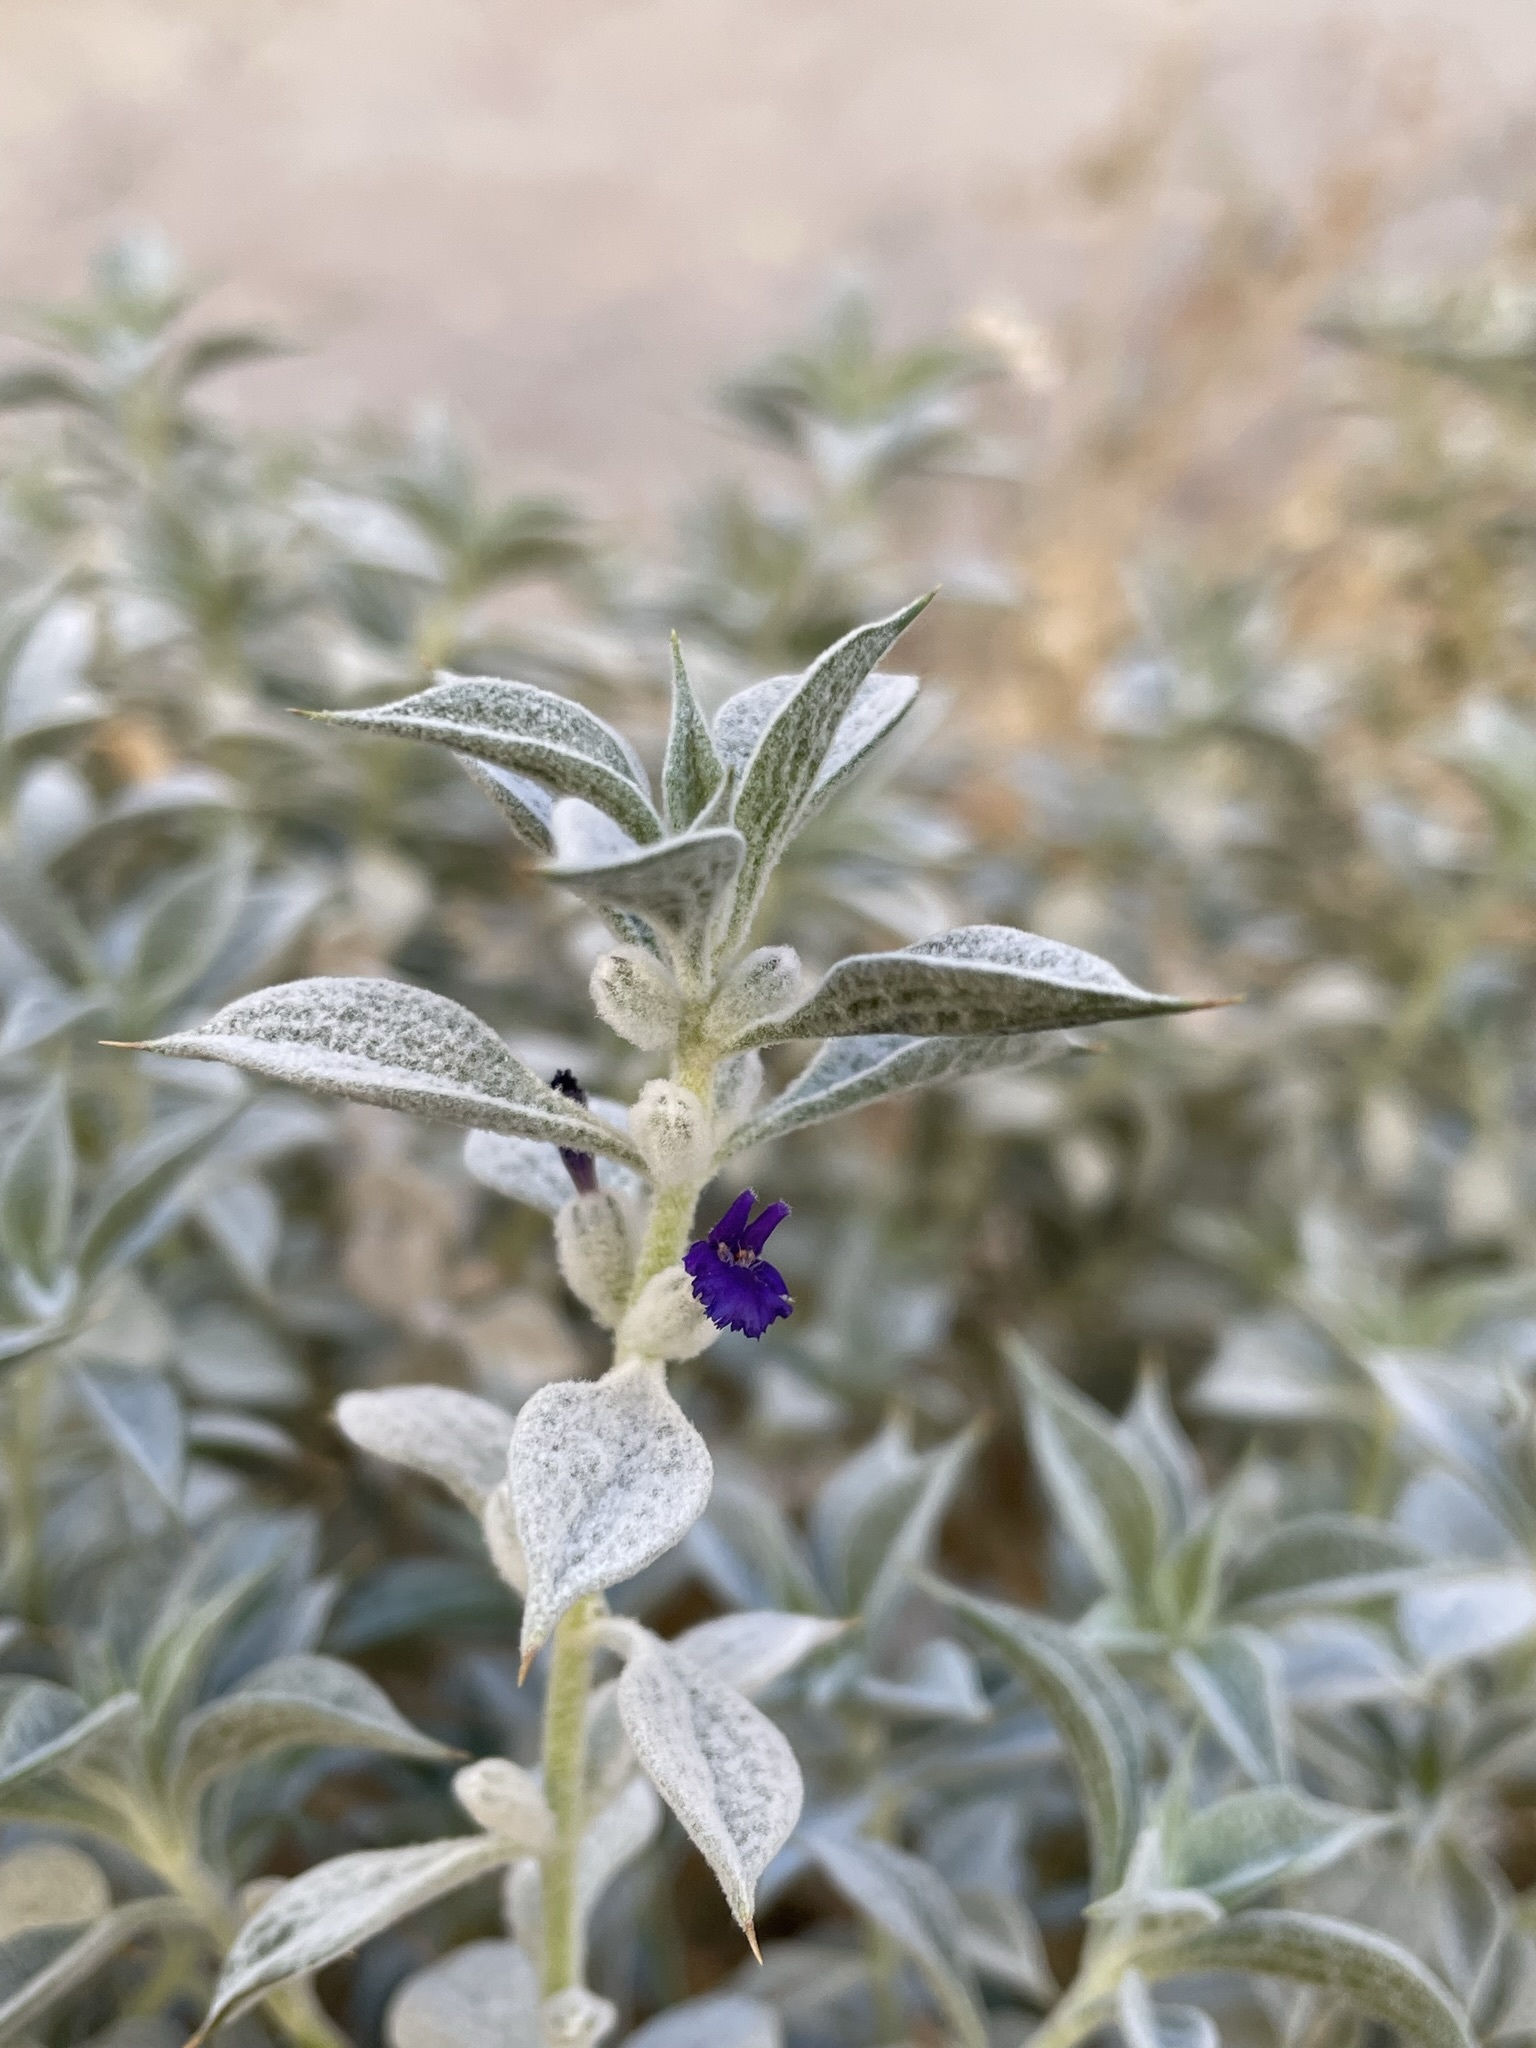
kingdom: Plantae
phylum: Tracheophyta
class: Magnoliopsida
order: Lamiales
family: Lamiaceae
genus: Salvia
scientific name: Salvia funerea
